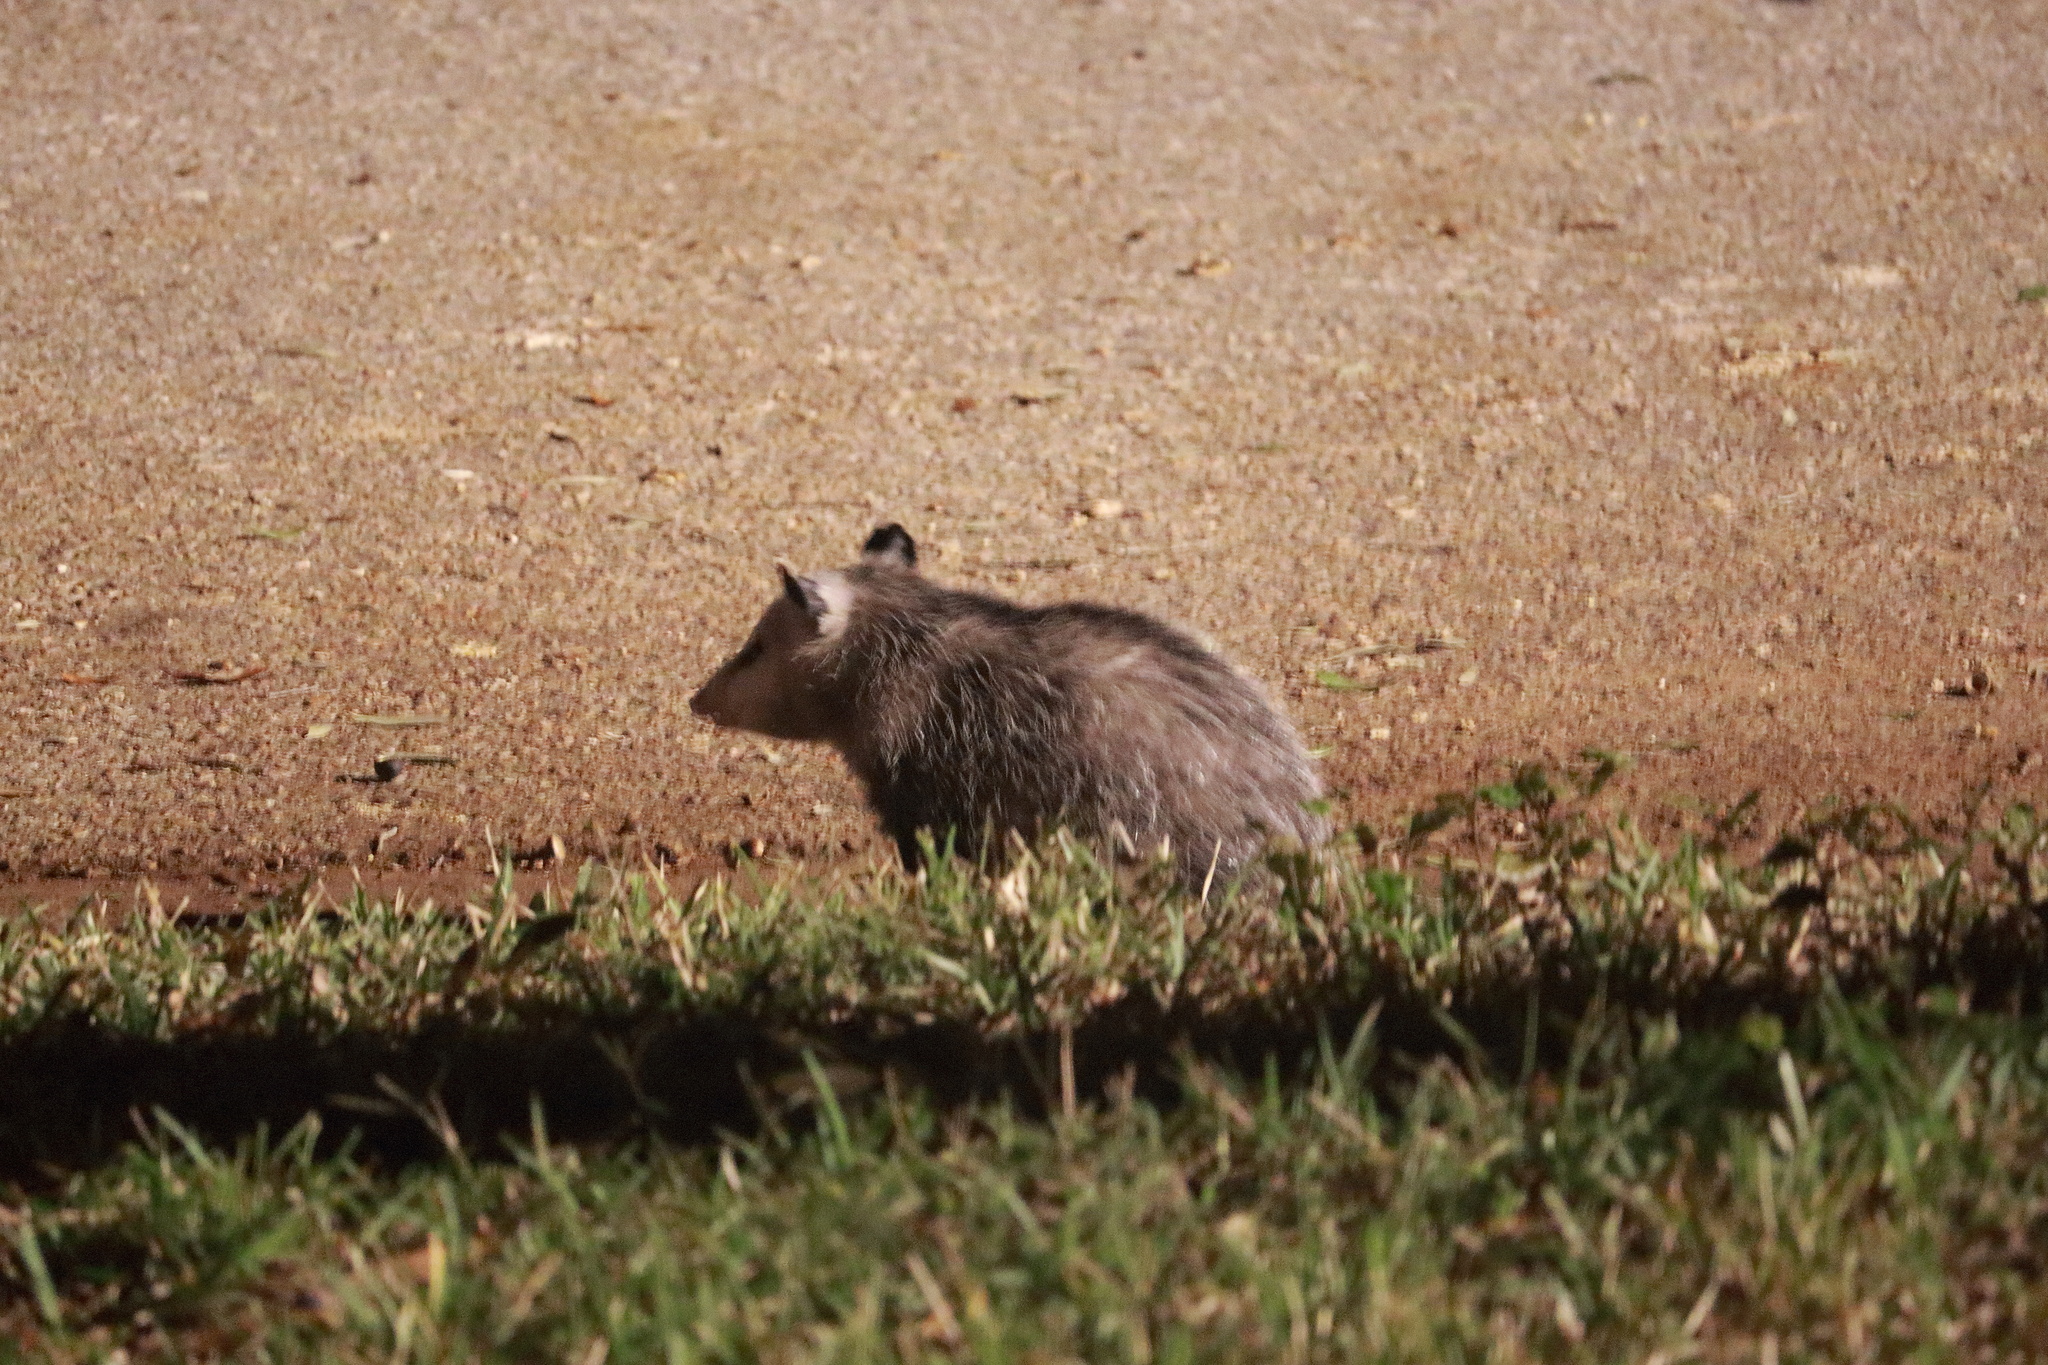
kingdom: Animalia
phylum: Chordata
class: Mammalia
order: Didelphimorphia
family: Didelphidae
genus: Didelphis
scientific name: Didelphis virginiana
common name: Virginia opossum
